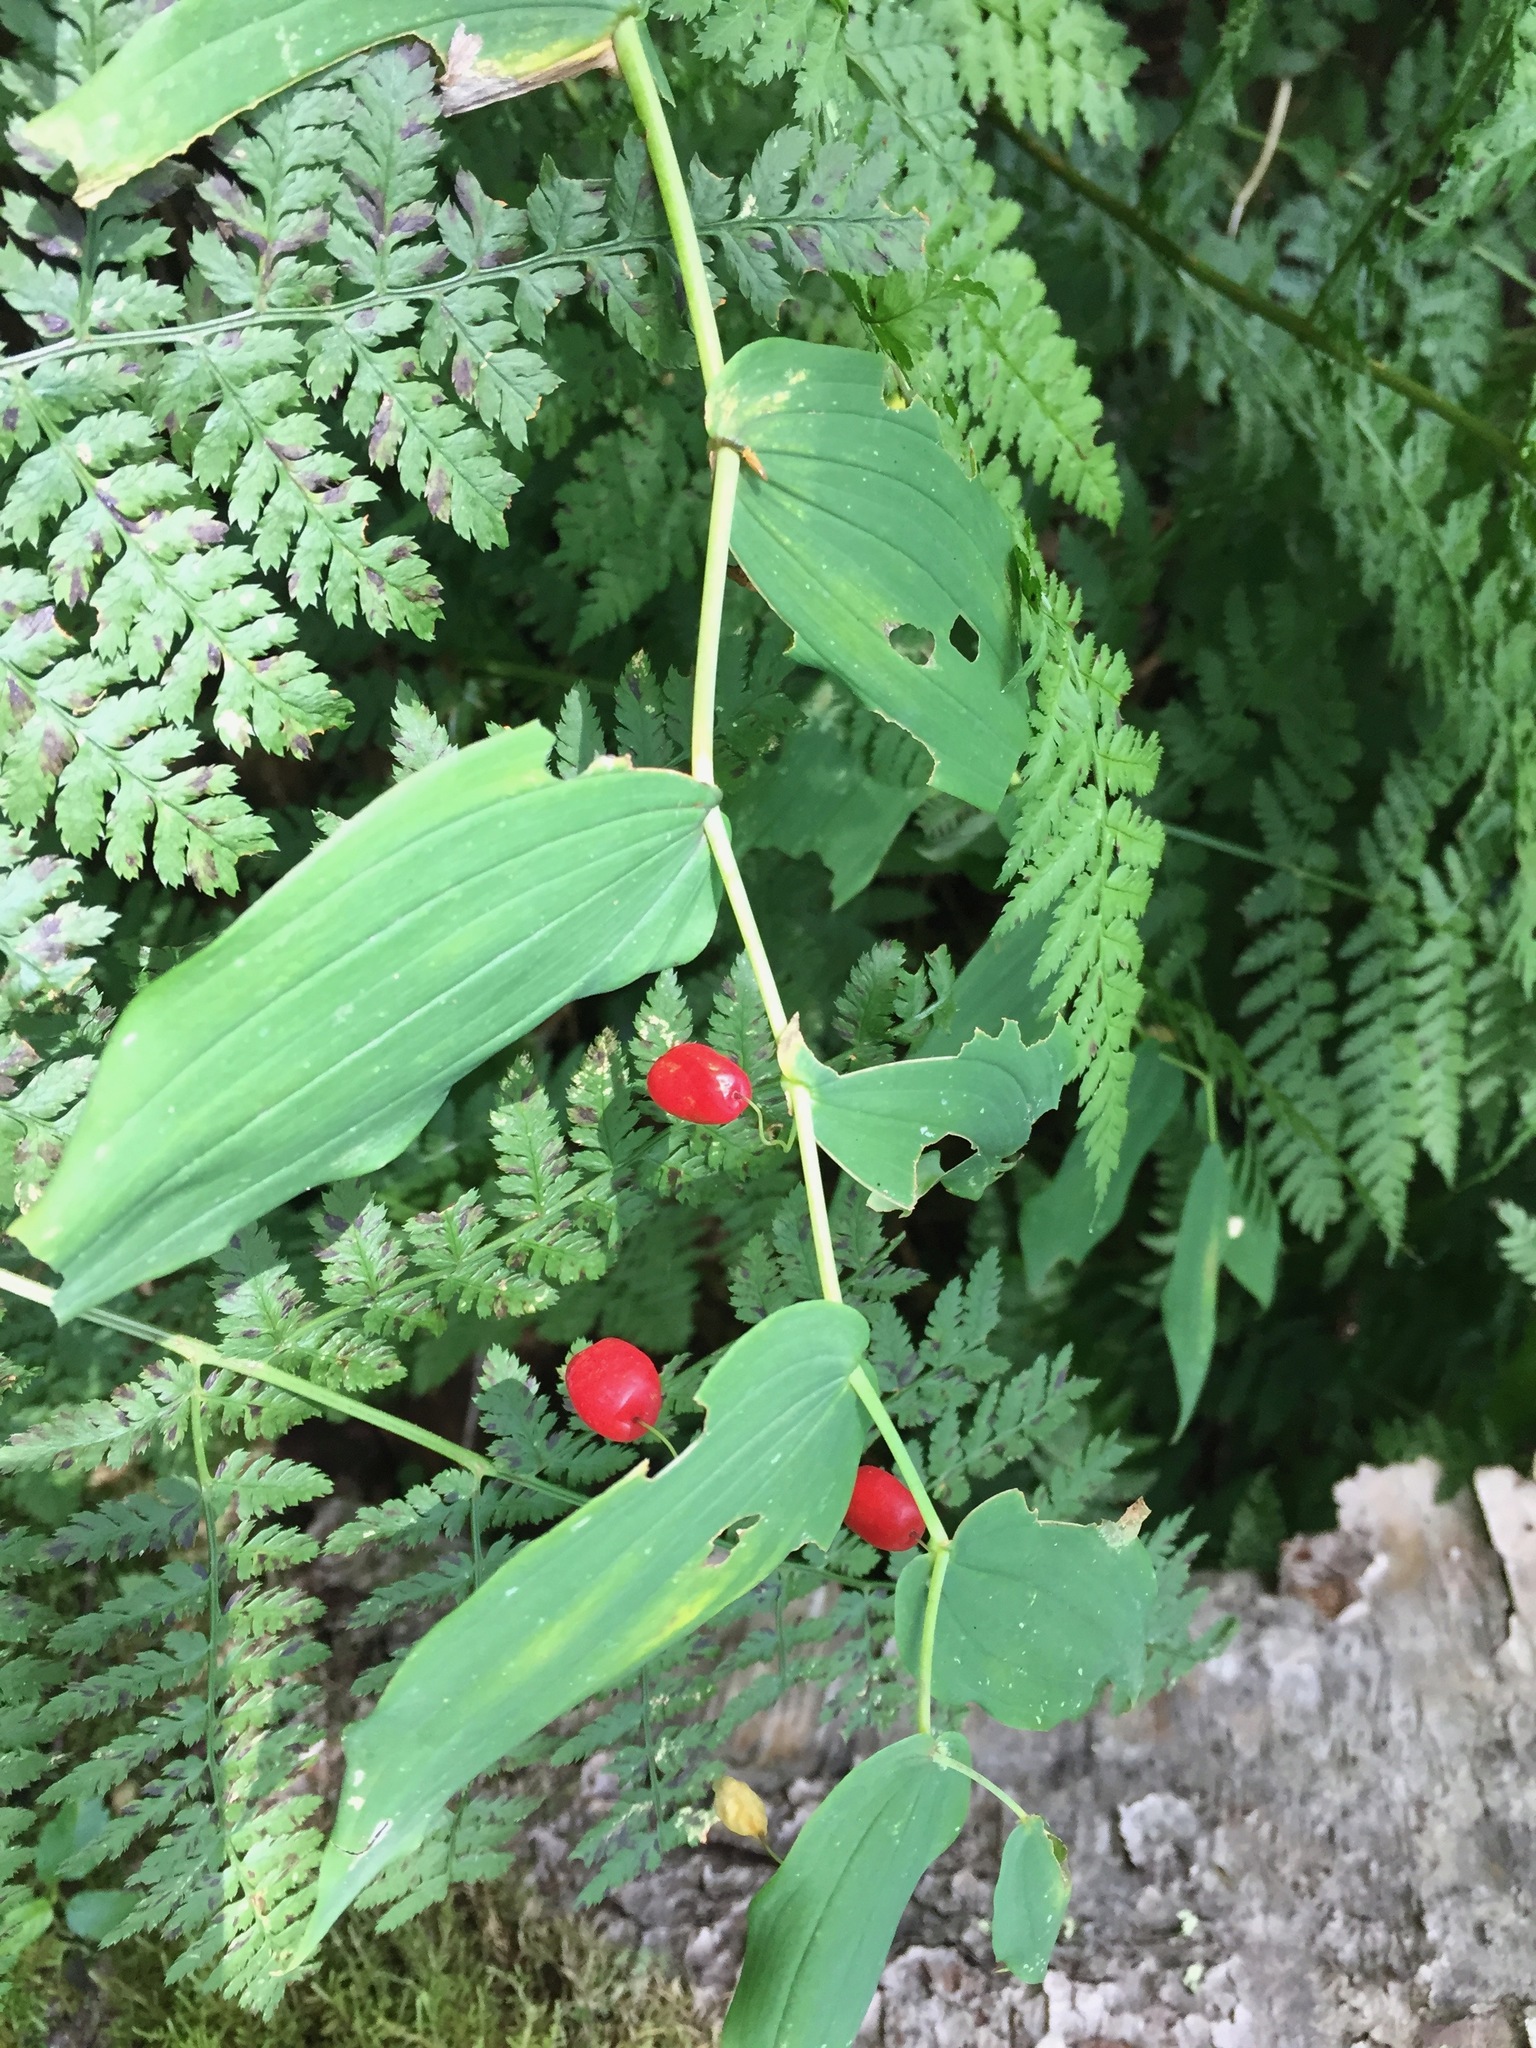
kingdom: Plantae
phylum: Tracheophyta
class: Liliopsida
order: Liliales
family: Liliaceae
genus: Streptopus
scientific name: Streptopus amplexifolius
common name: Clasp twisted stalk
